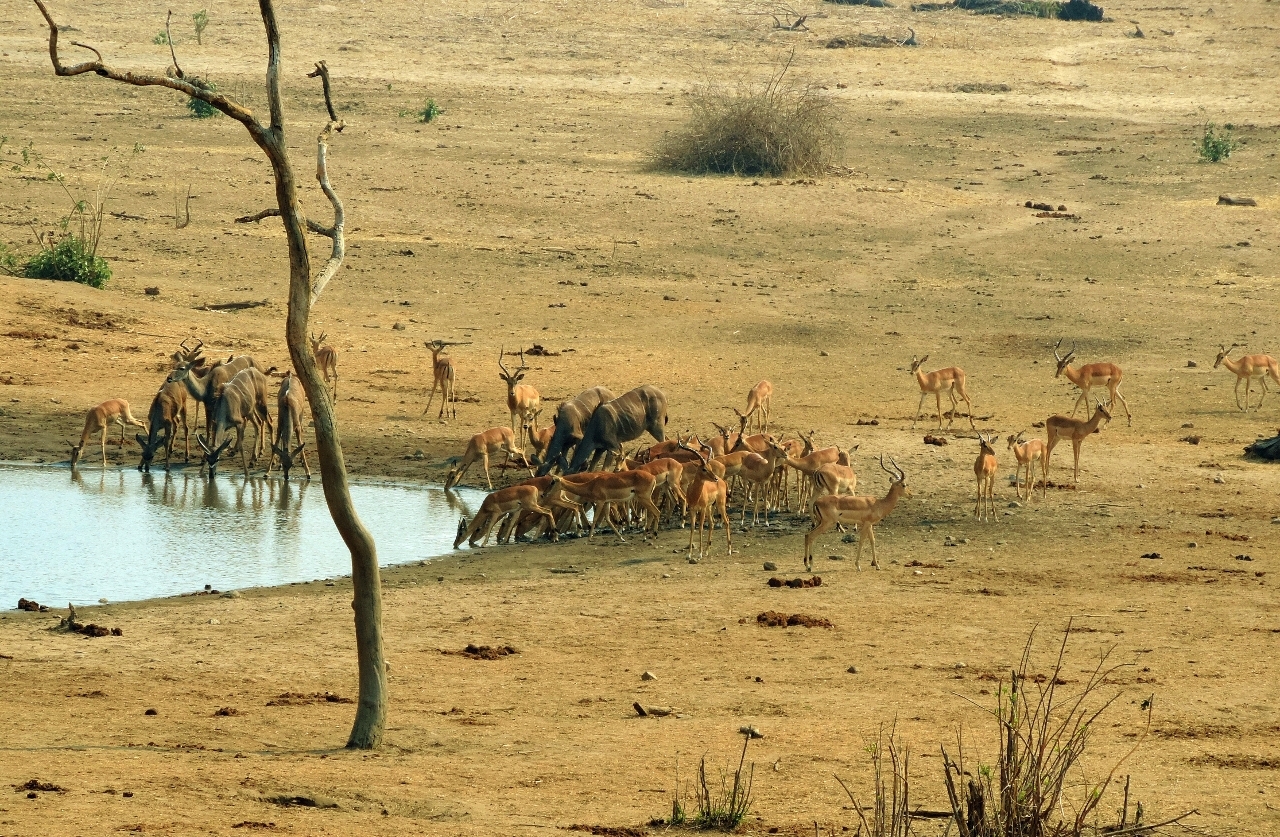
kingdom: Animalia
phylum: Chordata
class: Mammalia
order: Artiodactyla
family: Bovidae
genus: Tragelaphus
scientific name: Tragelaphus strepsiceros
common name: Greater kudu
